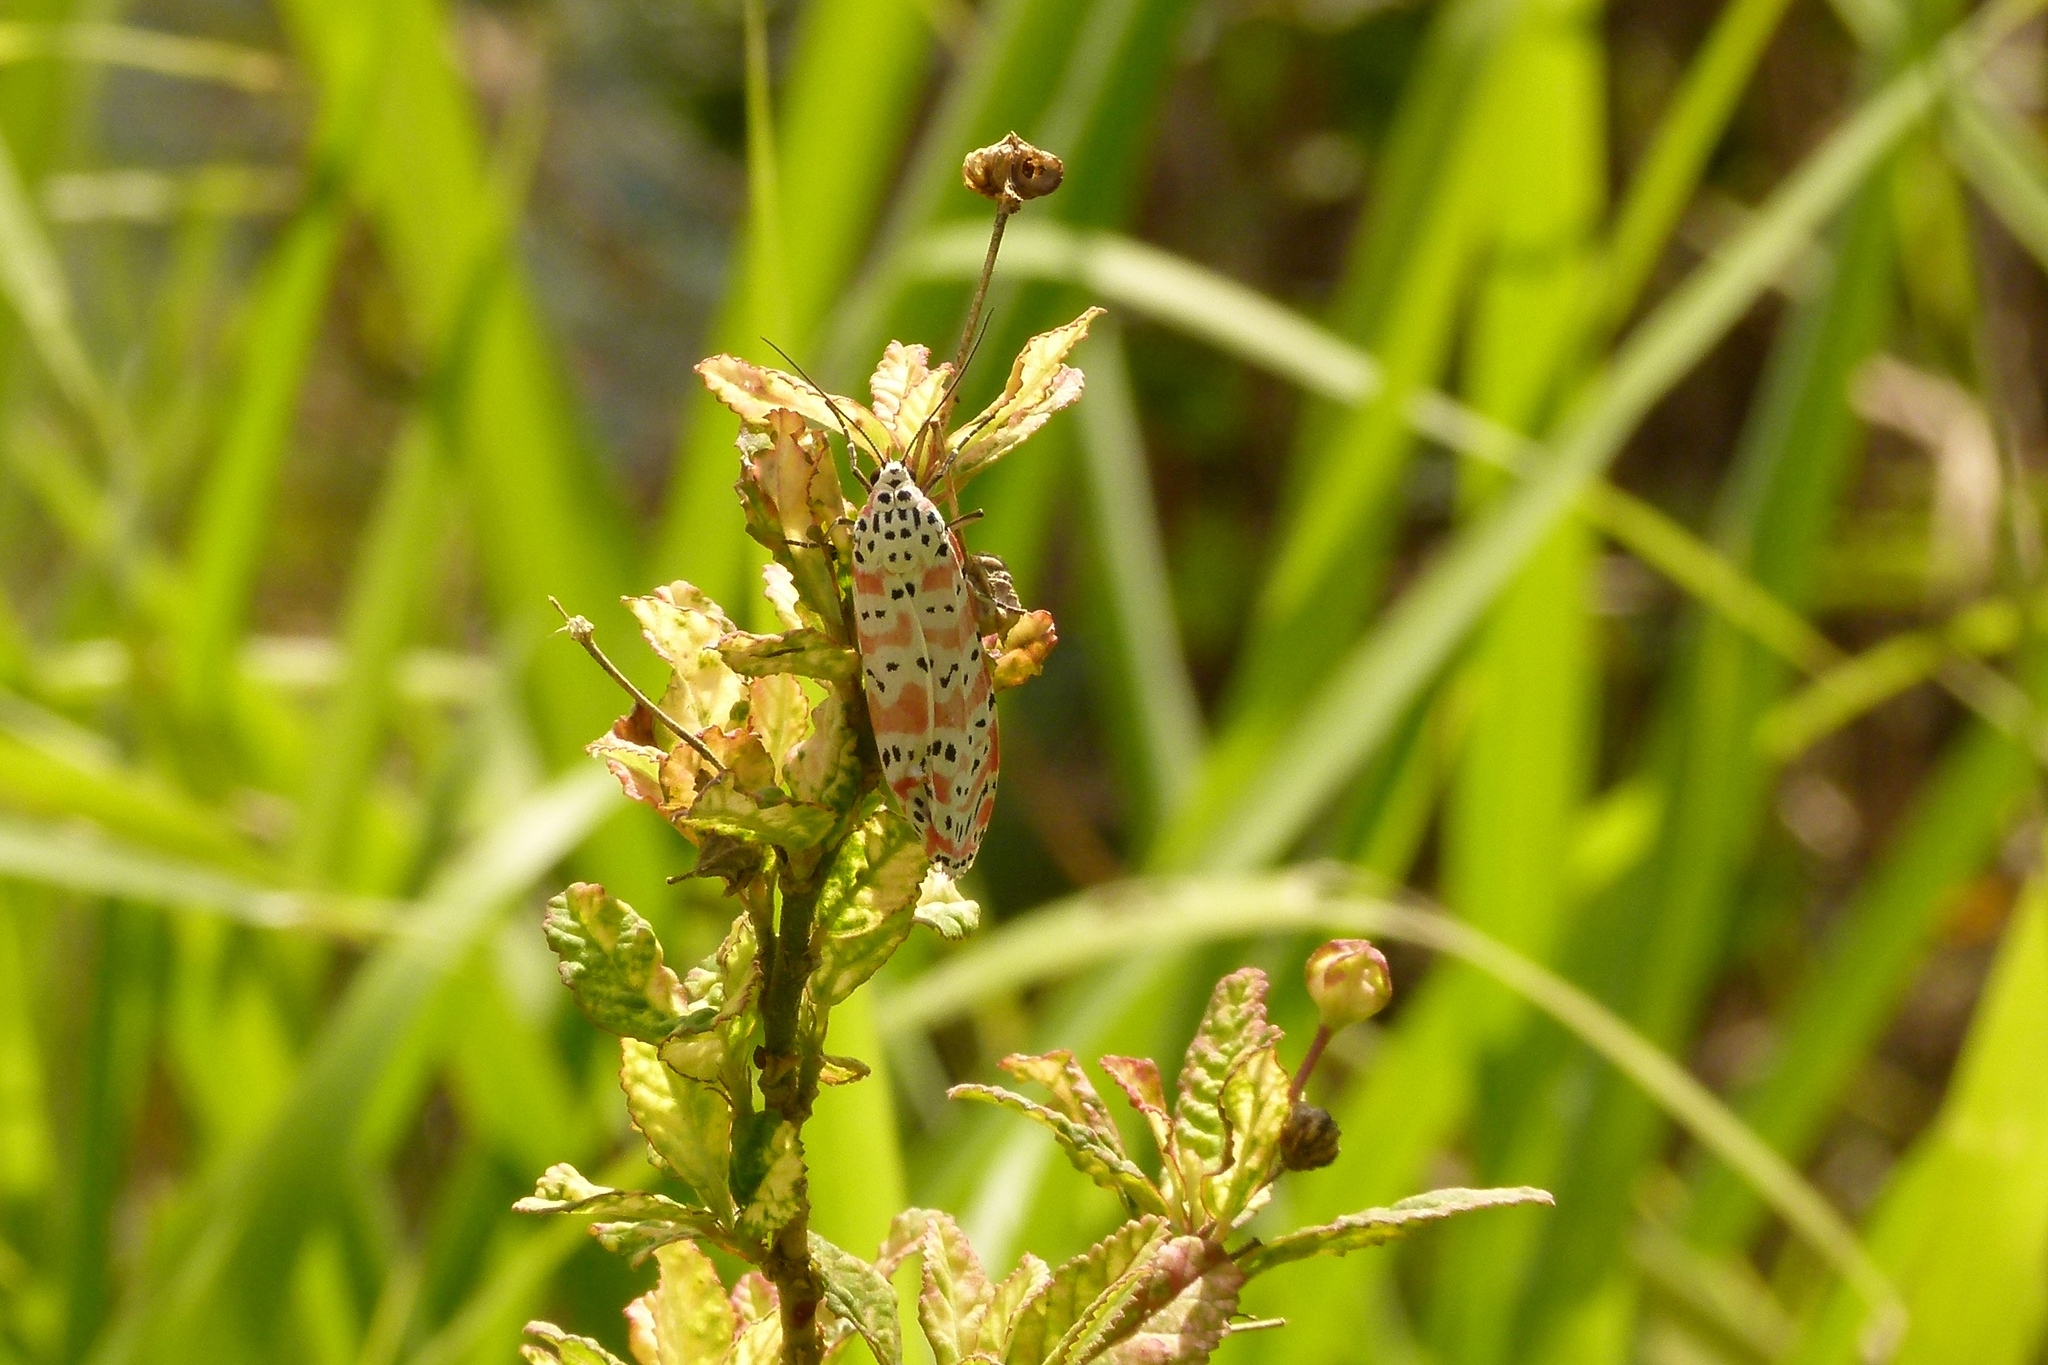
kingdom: Animalia
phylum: Arthropoda
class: Insecta
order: Lepidoptera
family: Erebidae
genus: Utetheisa
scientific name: Utetheisa ornatrix
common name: Beautiful utetheisa
